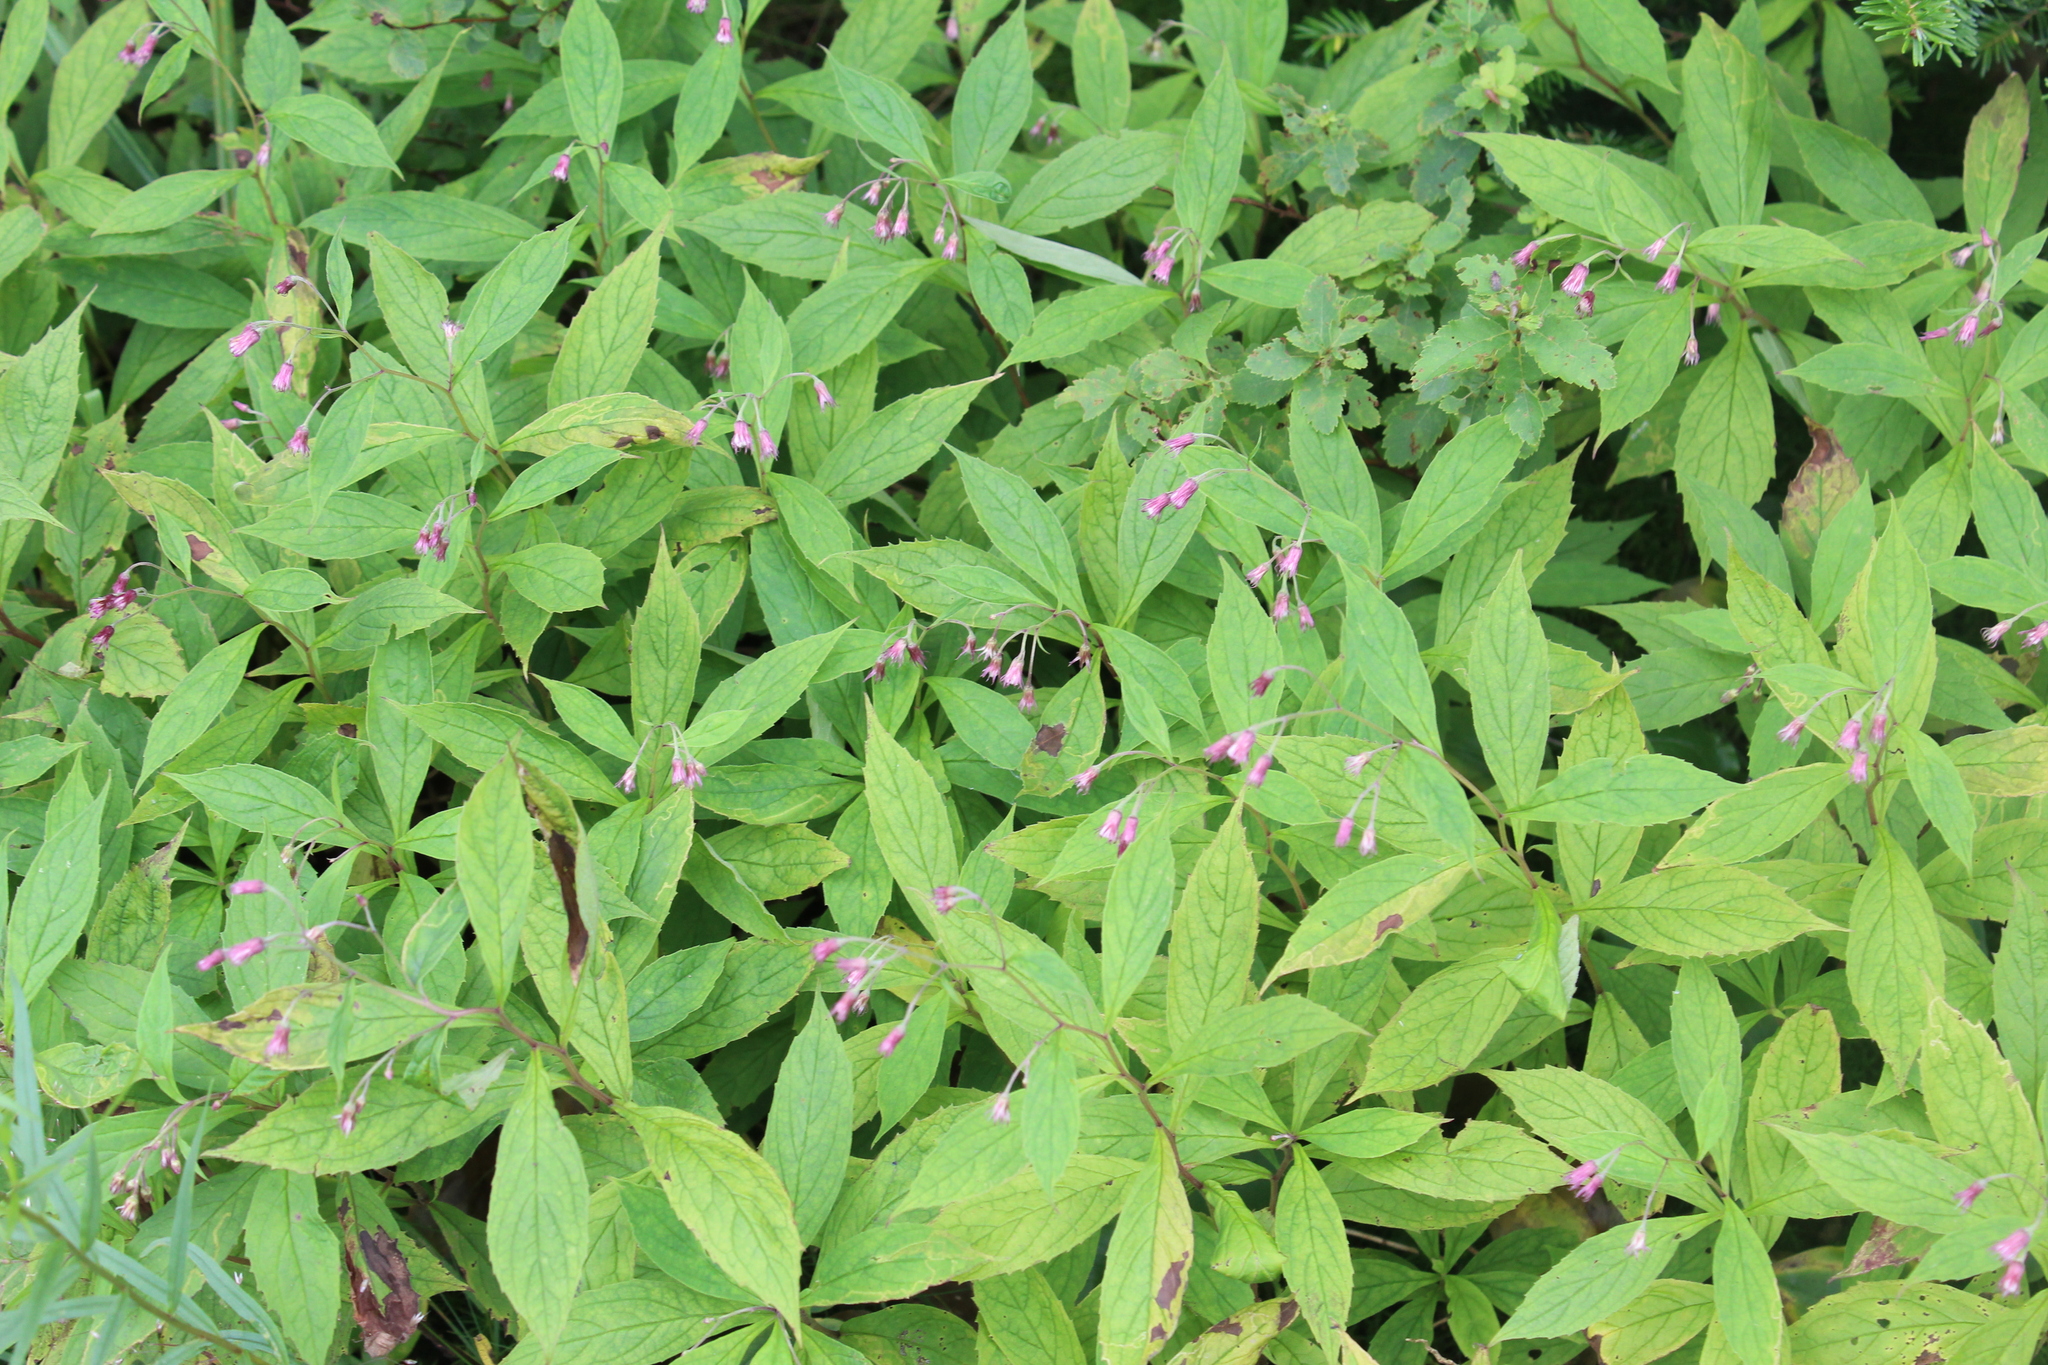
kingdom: Plantae
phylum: Tracheophyta
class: Magnoliopsida
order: Asterales
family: Asteraceae
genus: Oclemena
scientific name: Oclemena acuminata
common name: Mountain aster
